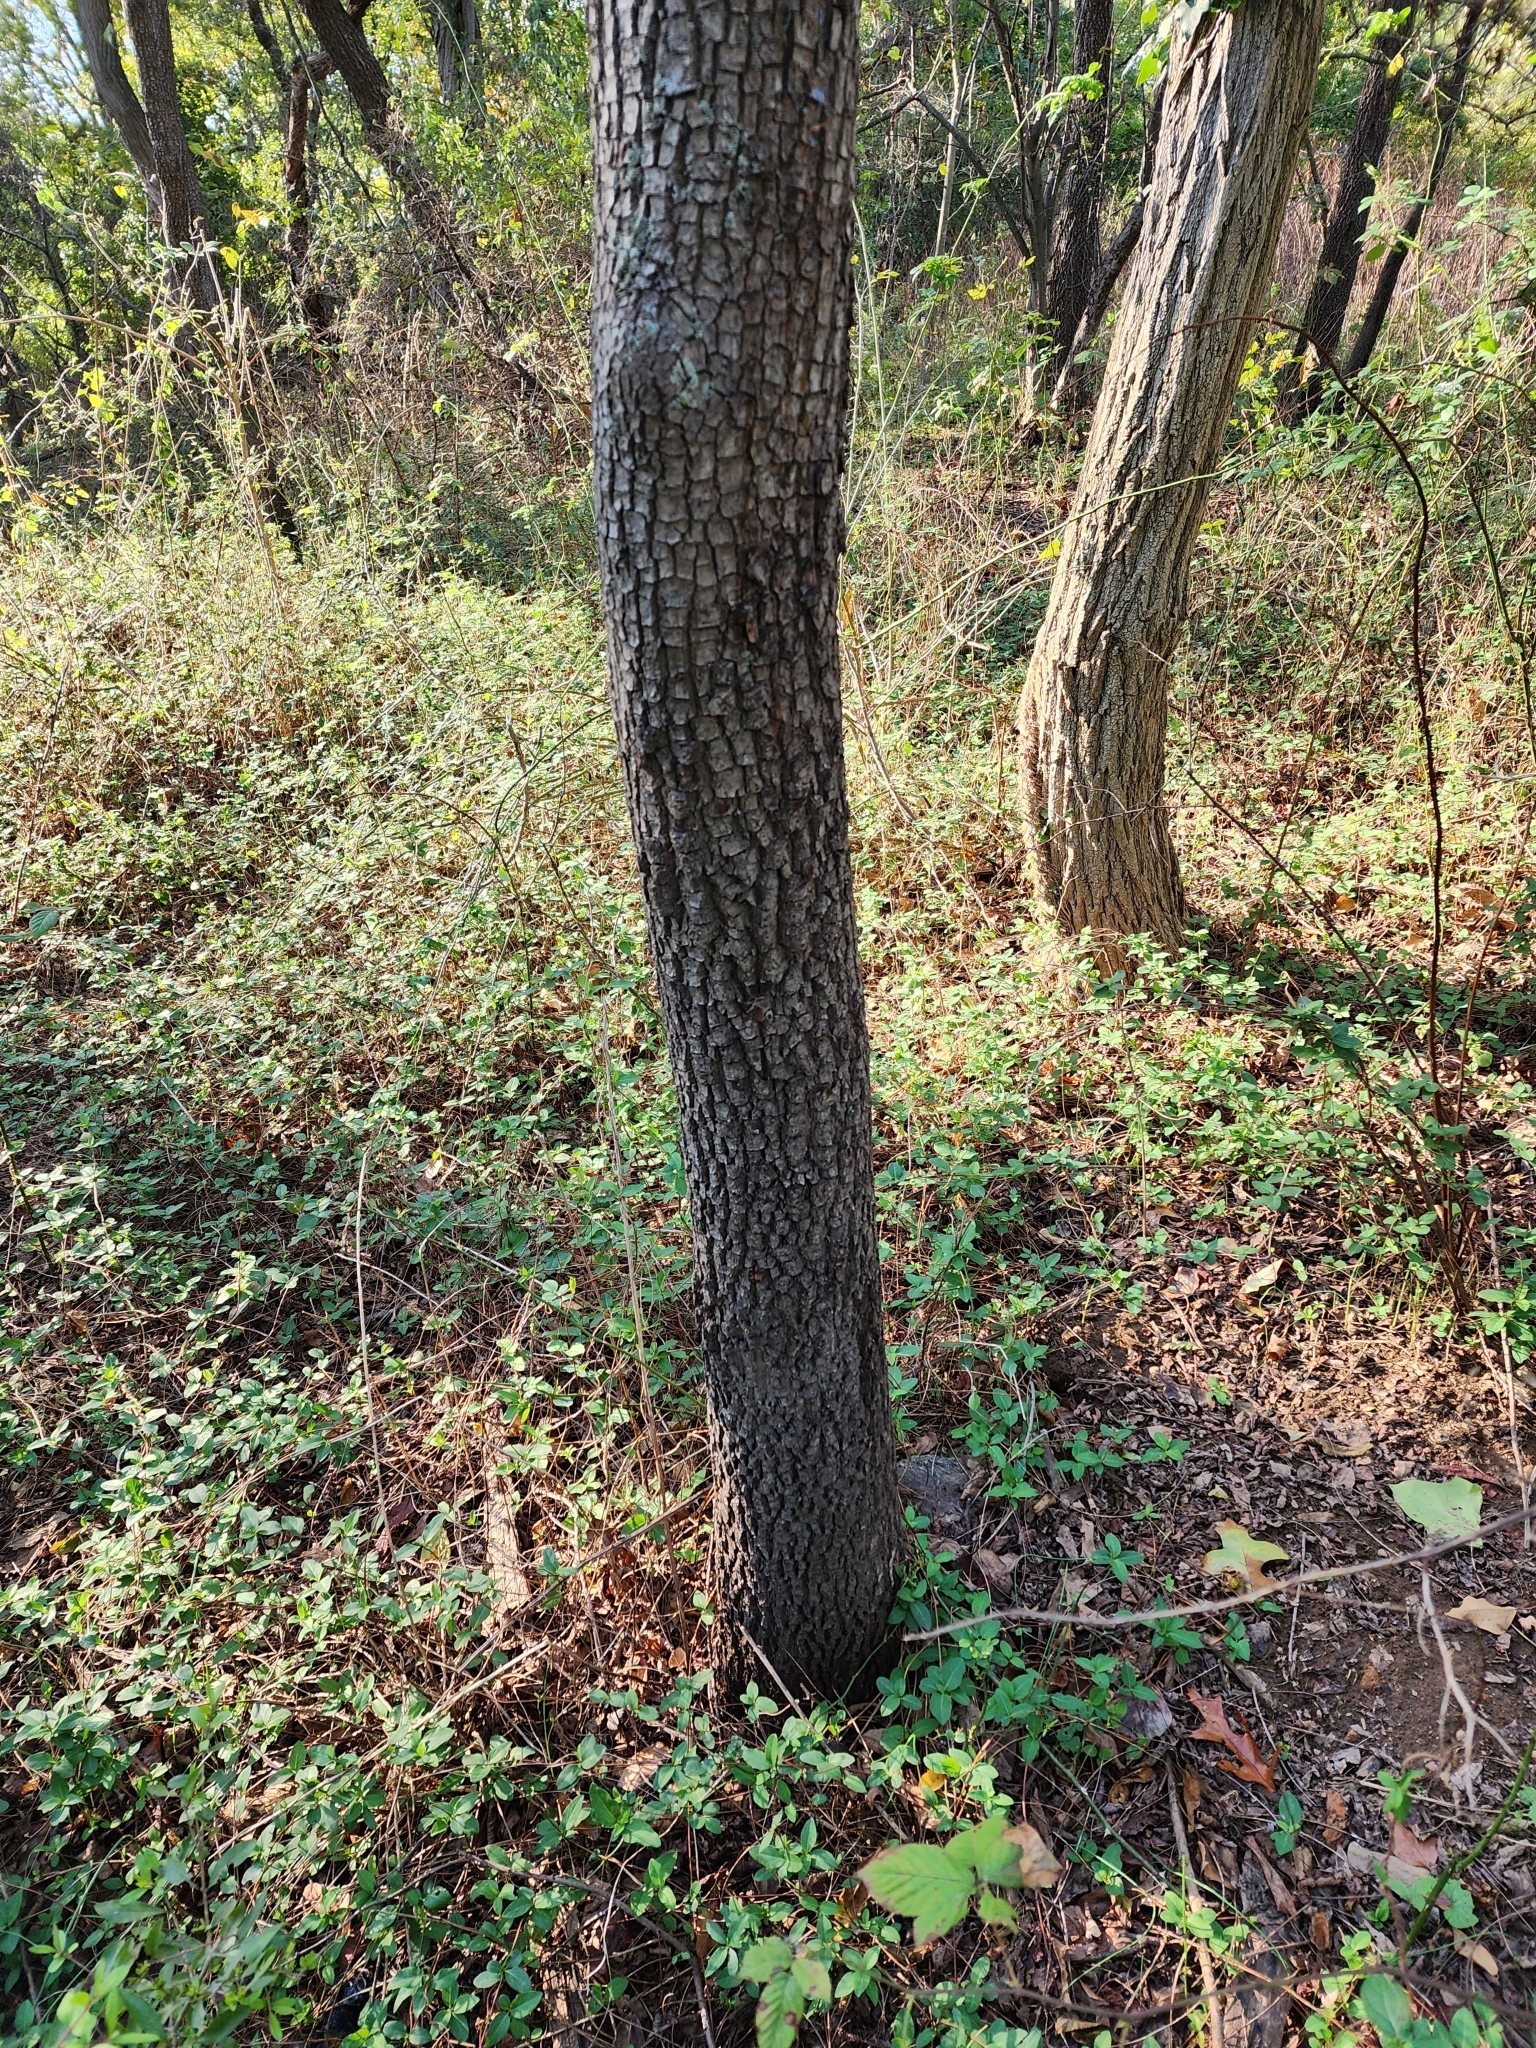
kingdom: Plantae
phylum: Tracheophyta
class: Magnoliopsida
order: Ericales
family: Ebenaceae
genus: Diospyros
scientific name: Diospyros virginiana
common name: Persimmon
